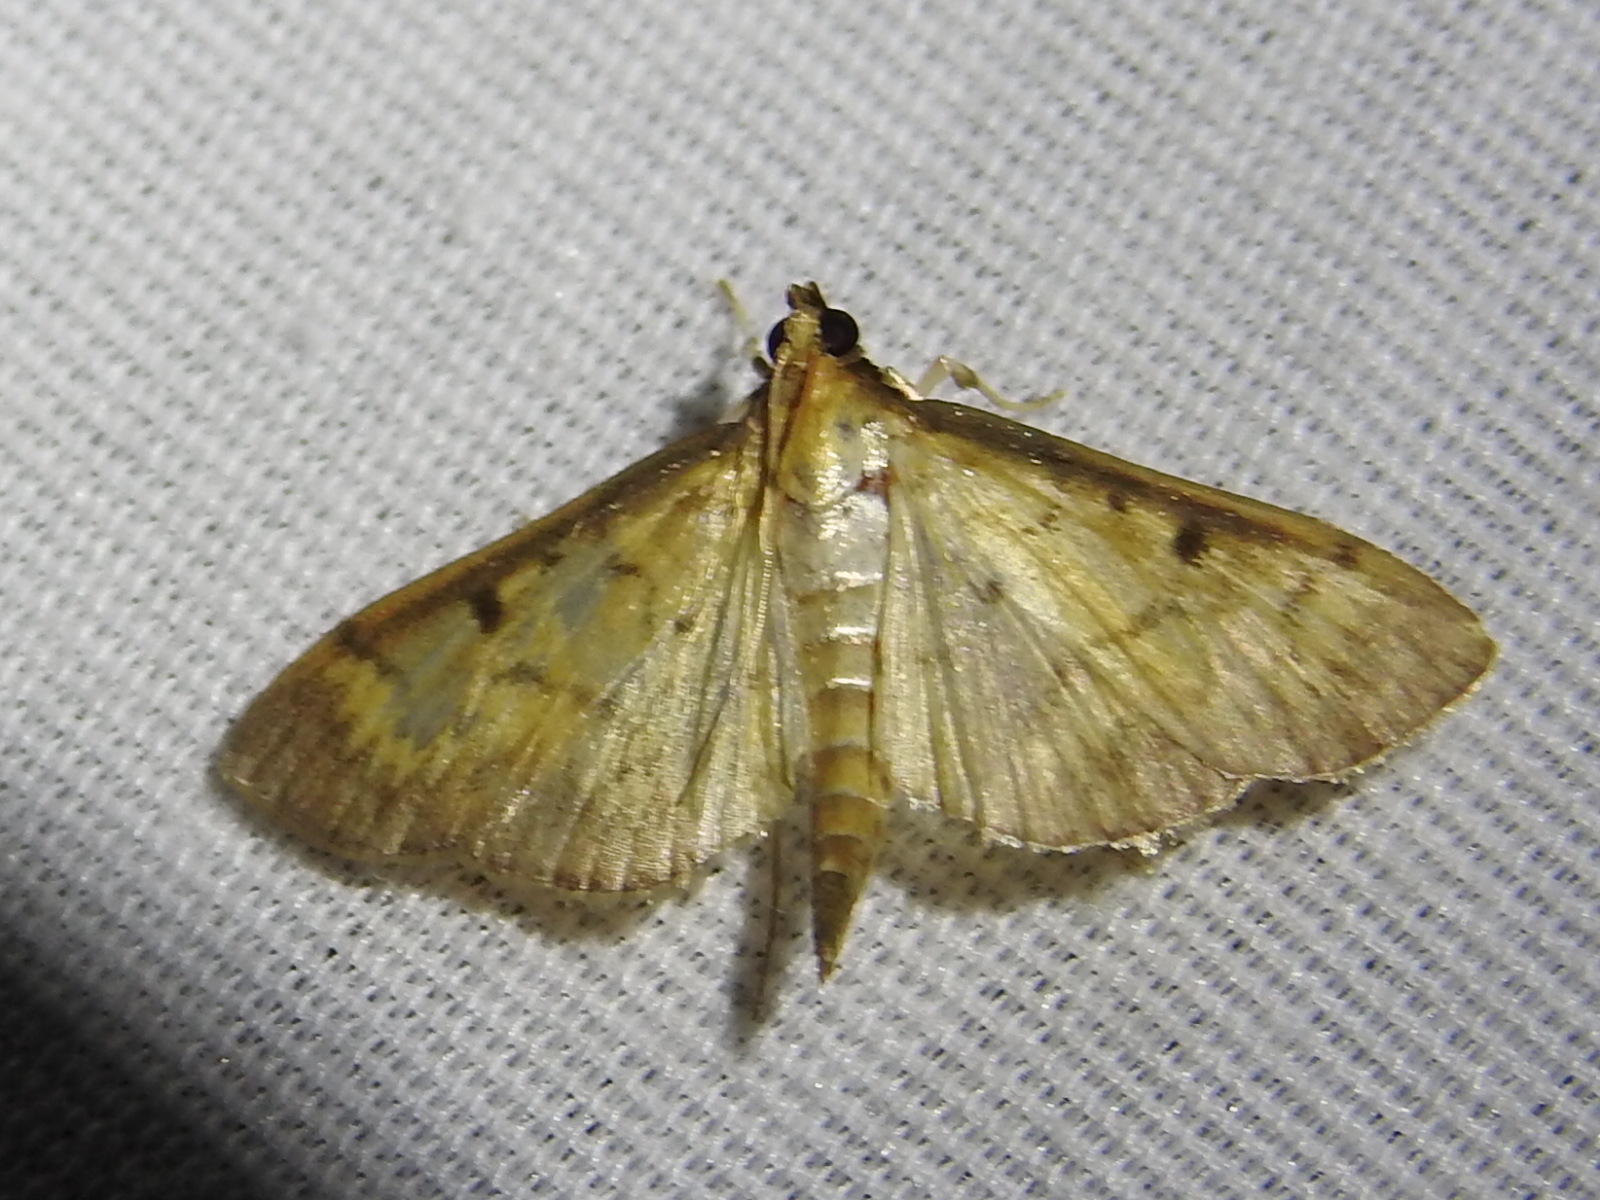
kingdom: Animalia
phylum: Arthropoda
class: Insecta
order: Lepidoptera
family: Crambidae
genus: Herpetogramma
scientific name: Herpetogramma bipunctalis
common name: Southern beet webworm
